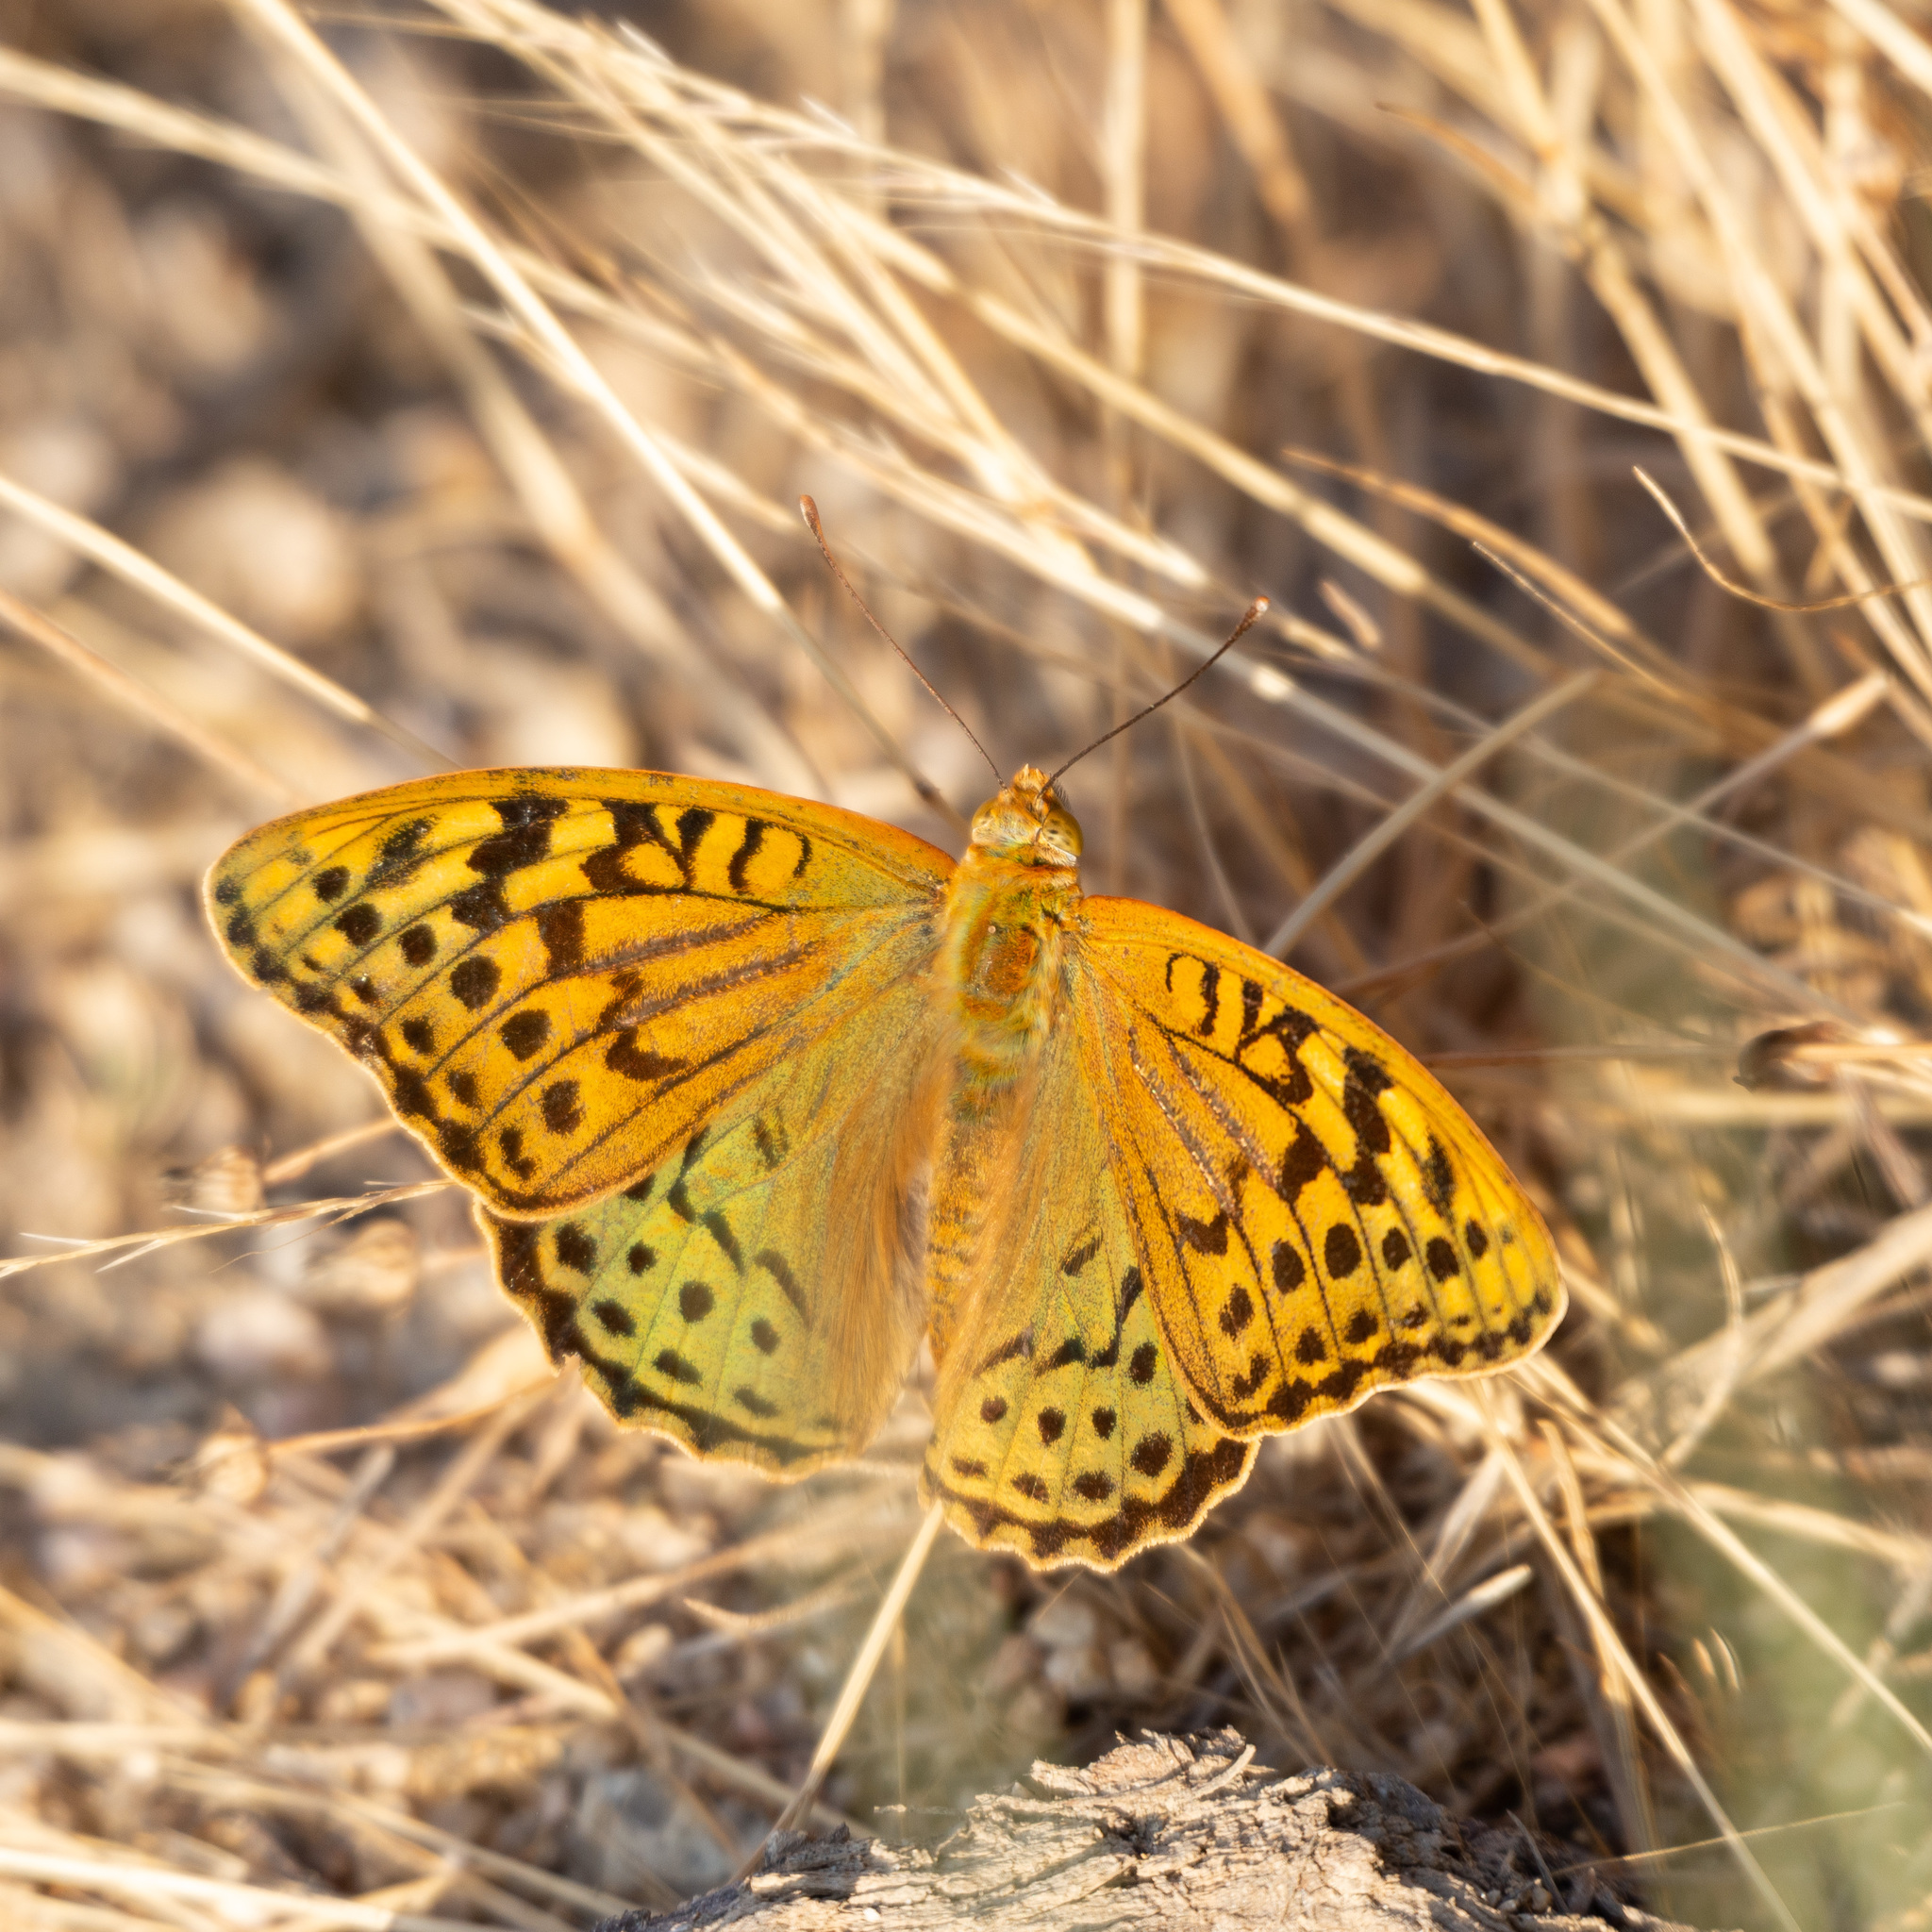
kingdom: Animalia
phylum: Arthropoda
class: Insecta
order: Lepidoptera
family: Nymphalidae
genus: Damora
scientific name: Damora pandora
